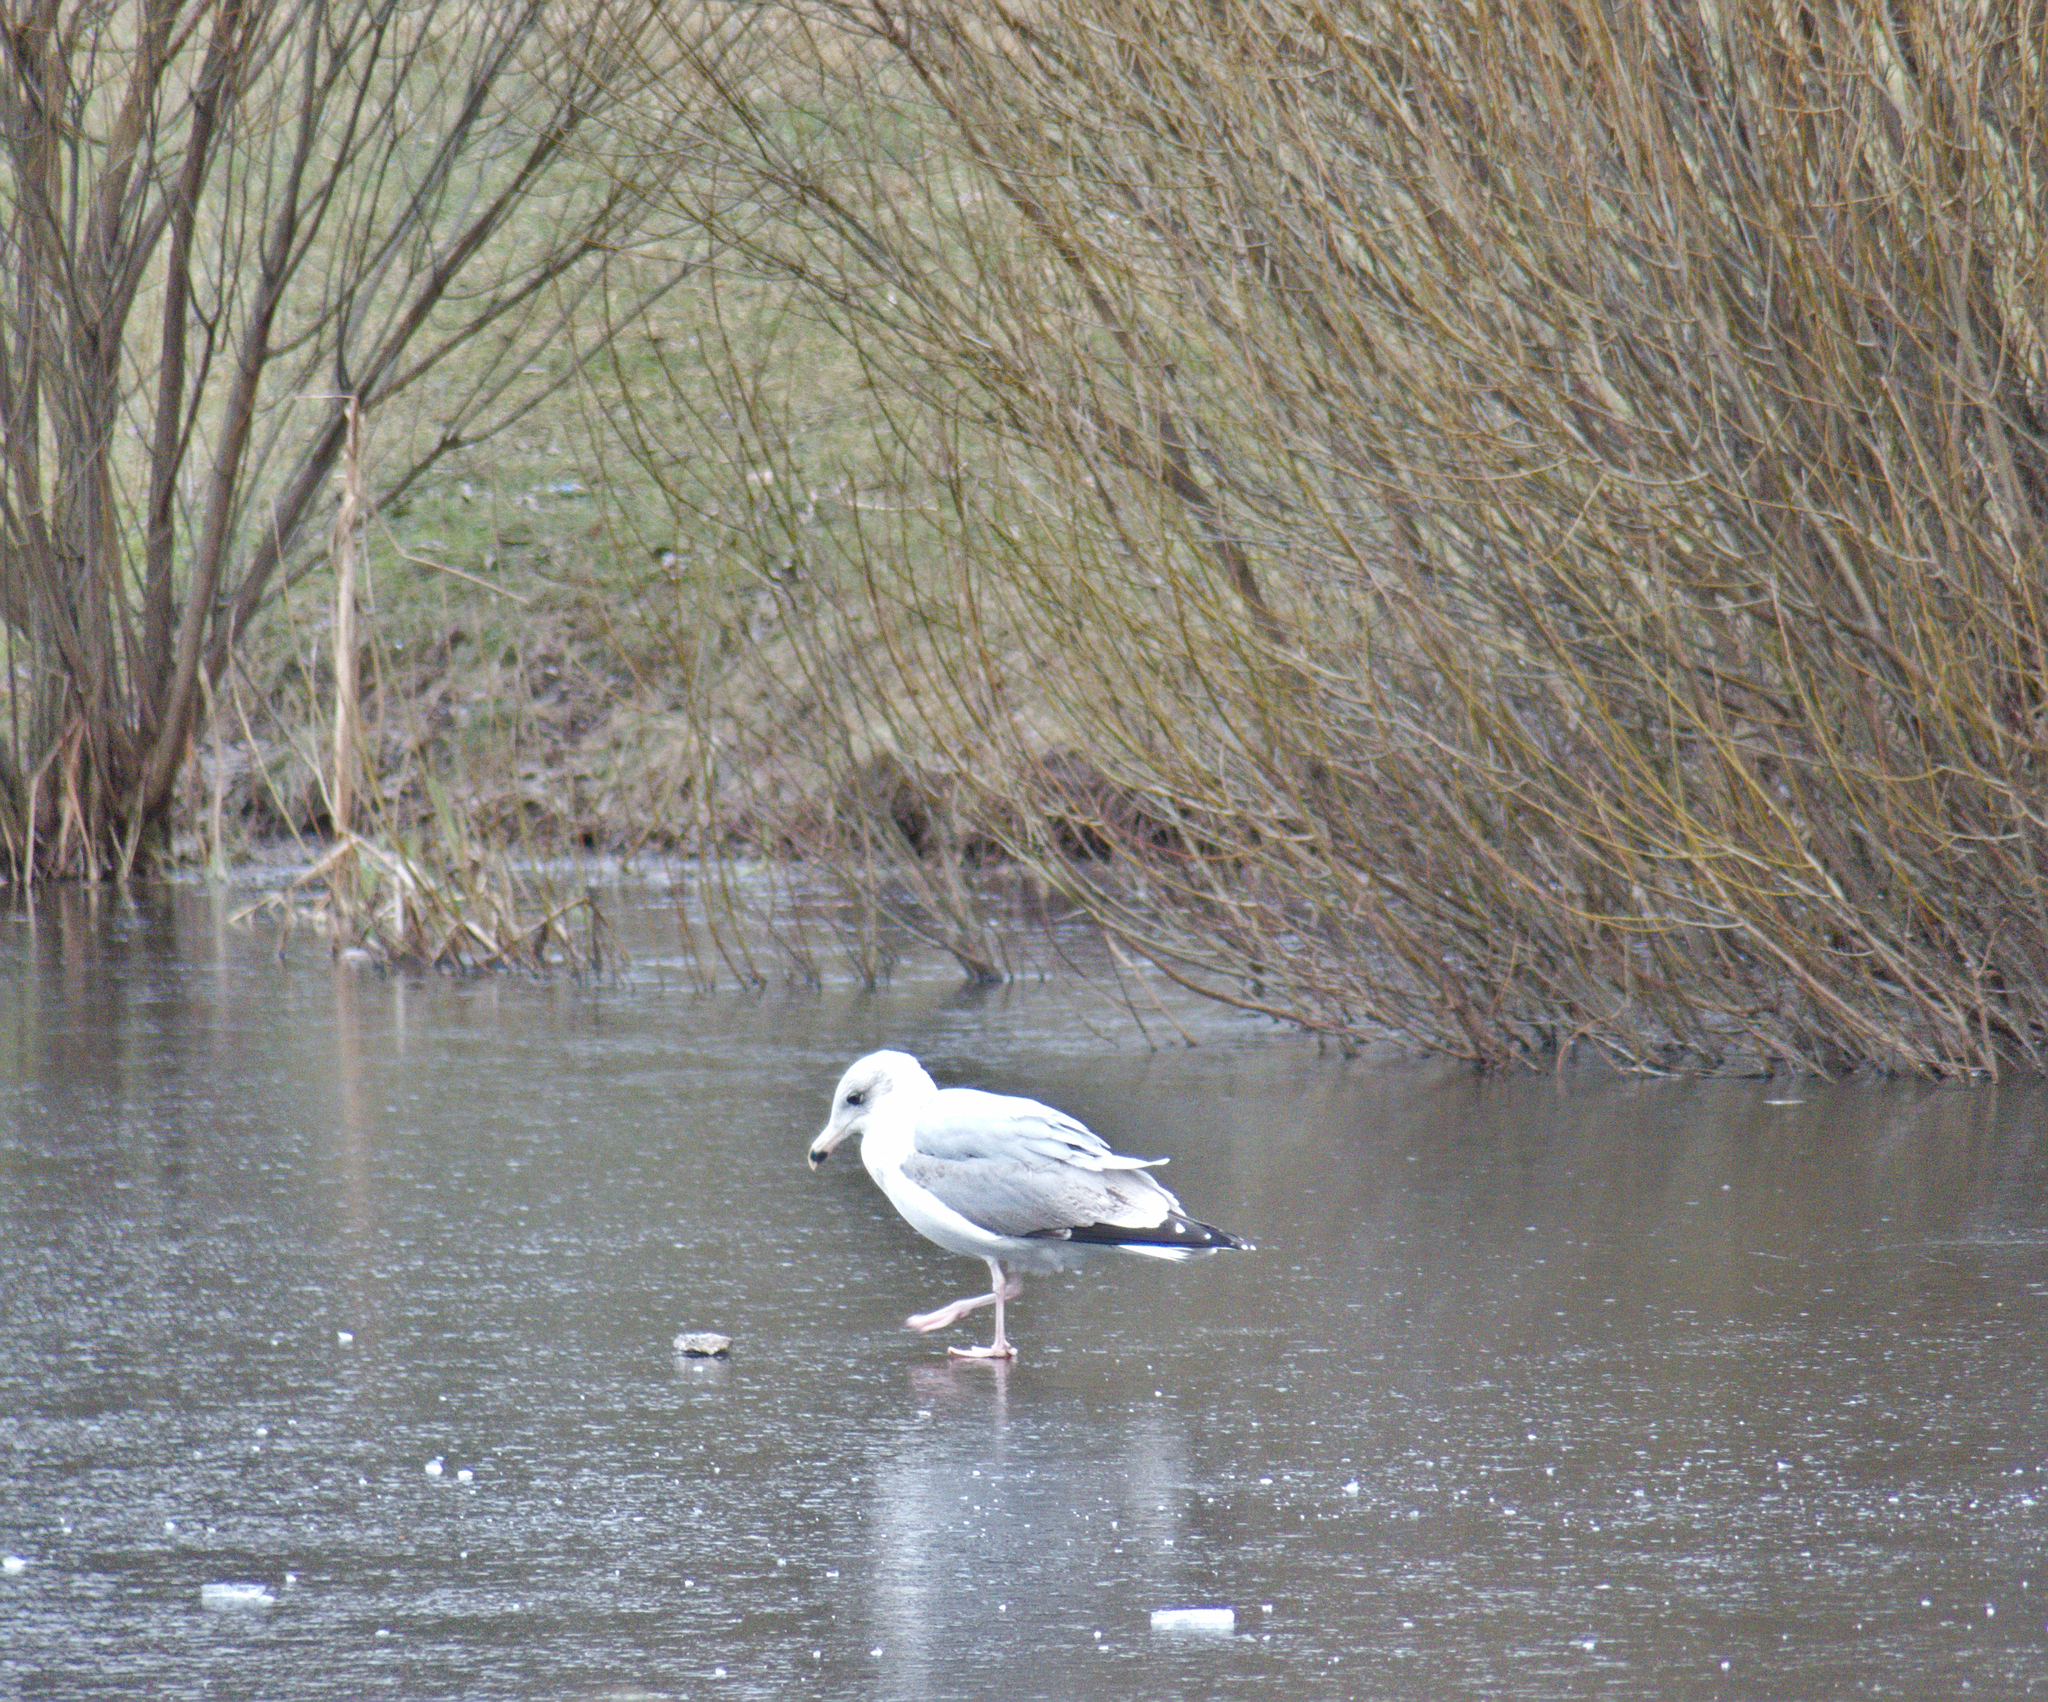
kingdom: Animalia
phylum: Chordata
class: Aves
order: Charadriiformes
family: Laridae
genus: Larus
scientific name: Larus argentatus
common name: Herring gull
